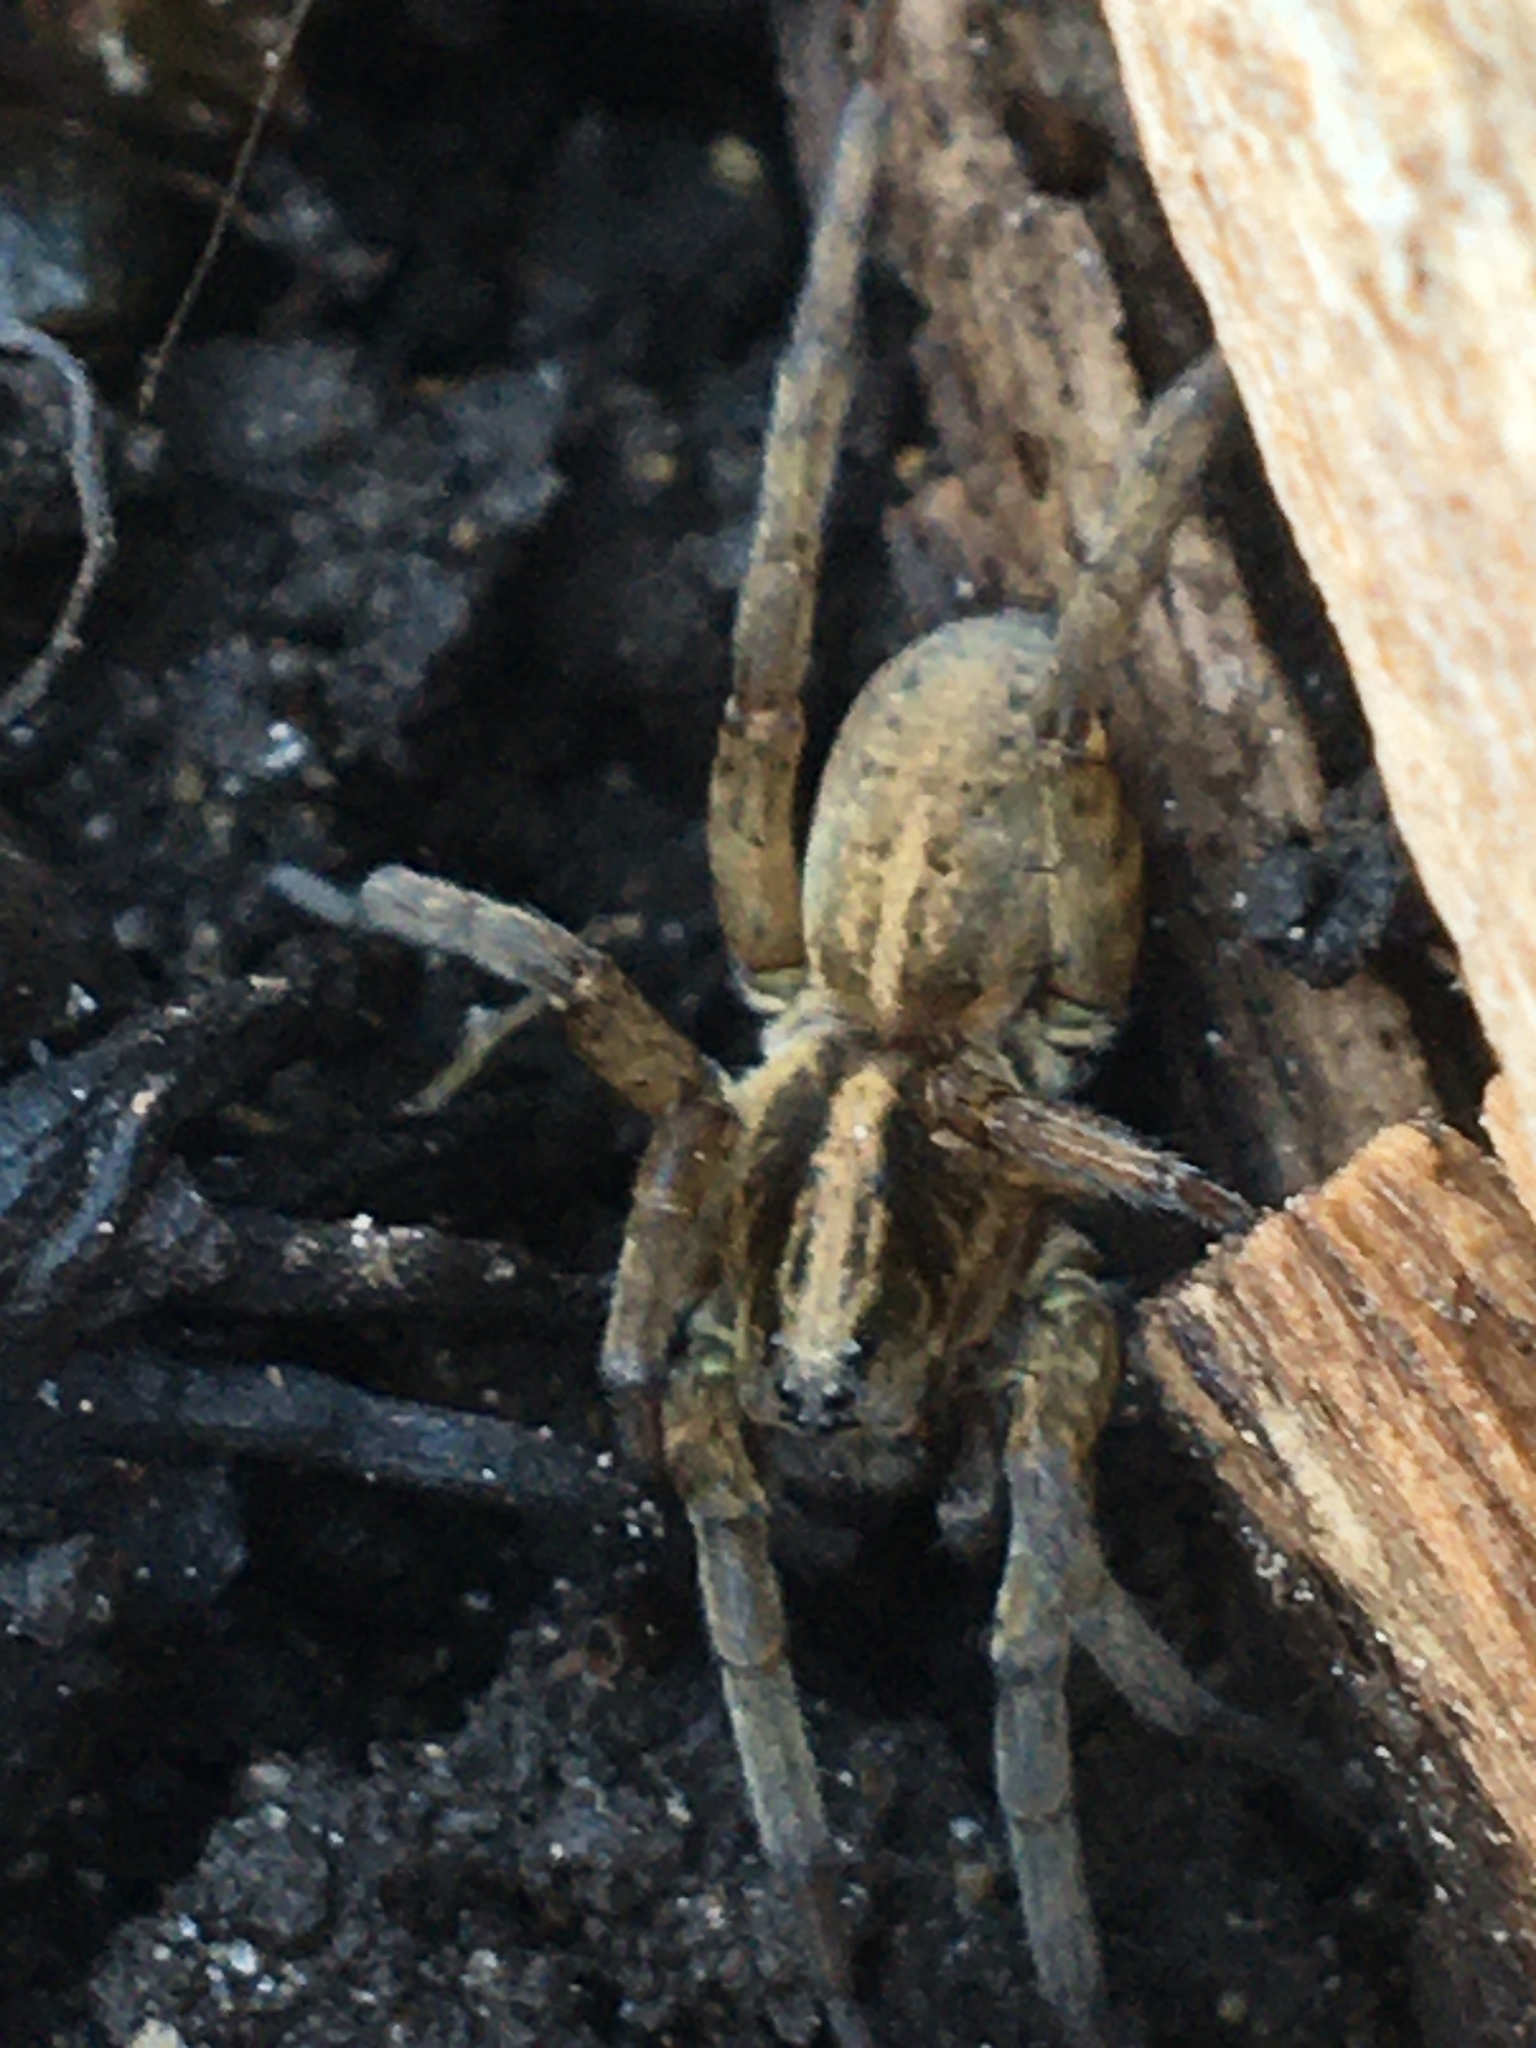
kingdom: Animalia
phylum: Arthropoda
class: Arachnida
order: Araneae
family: Lycosidae
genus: Trochosa
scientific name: Trochosa
